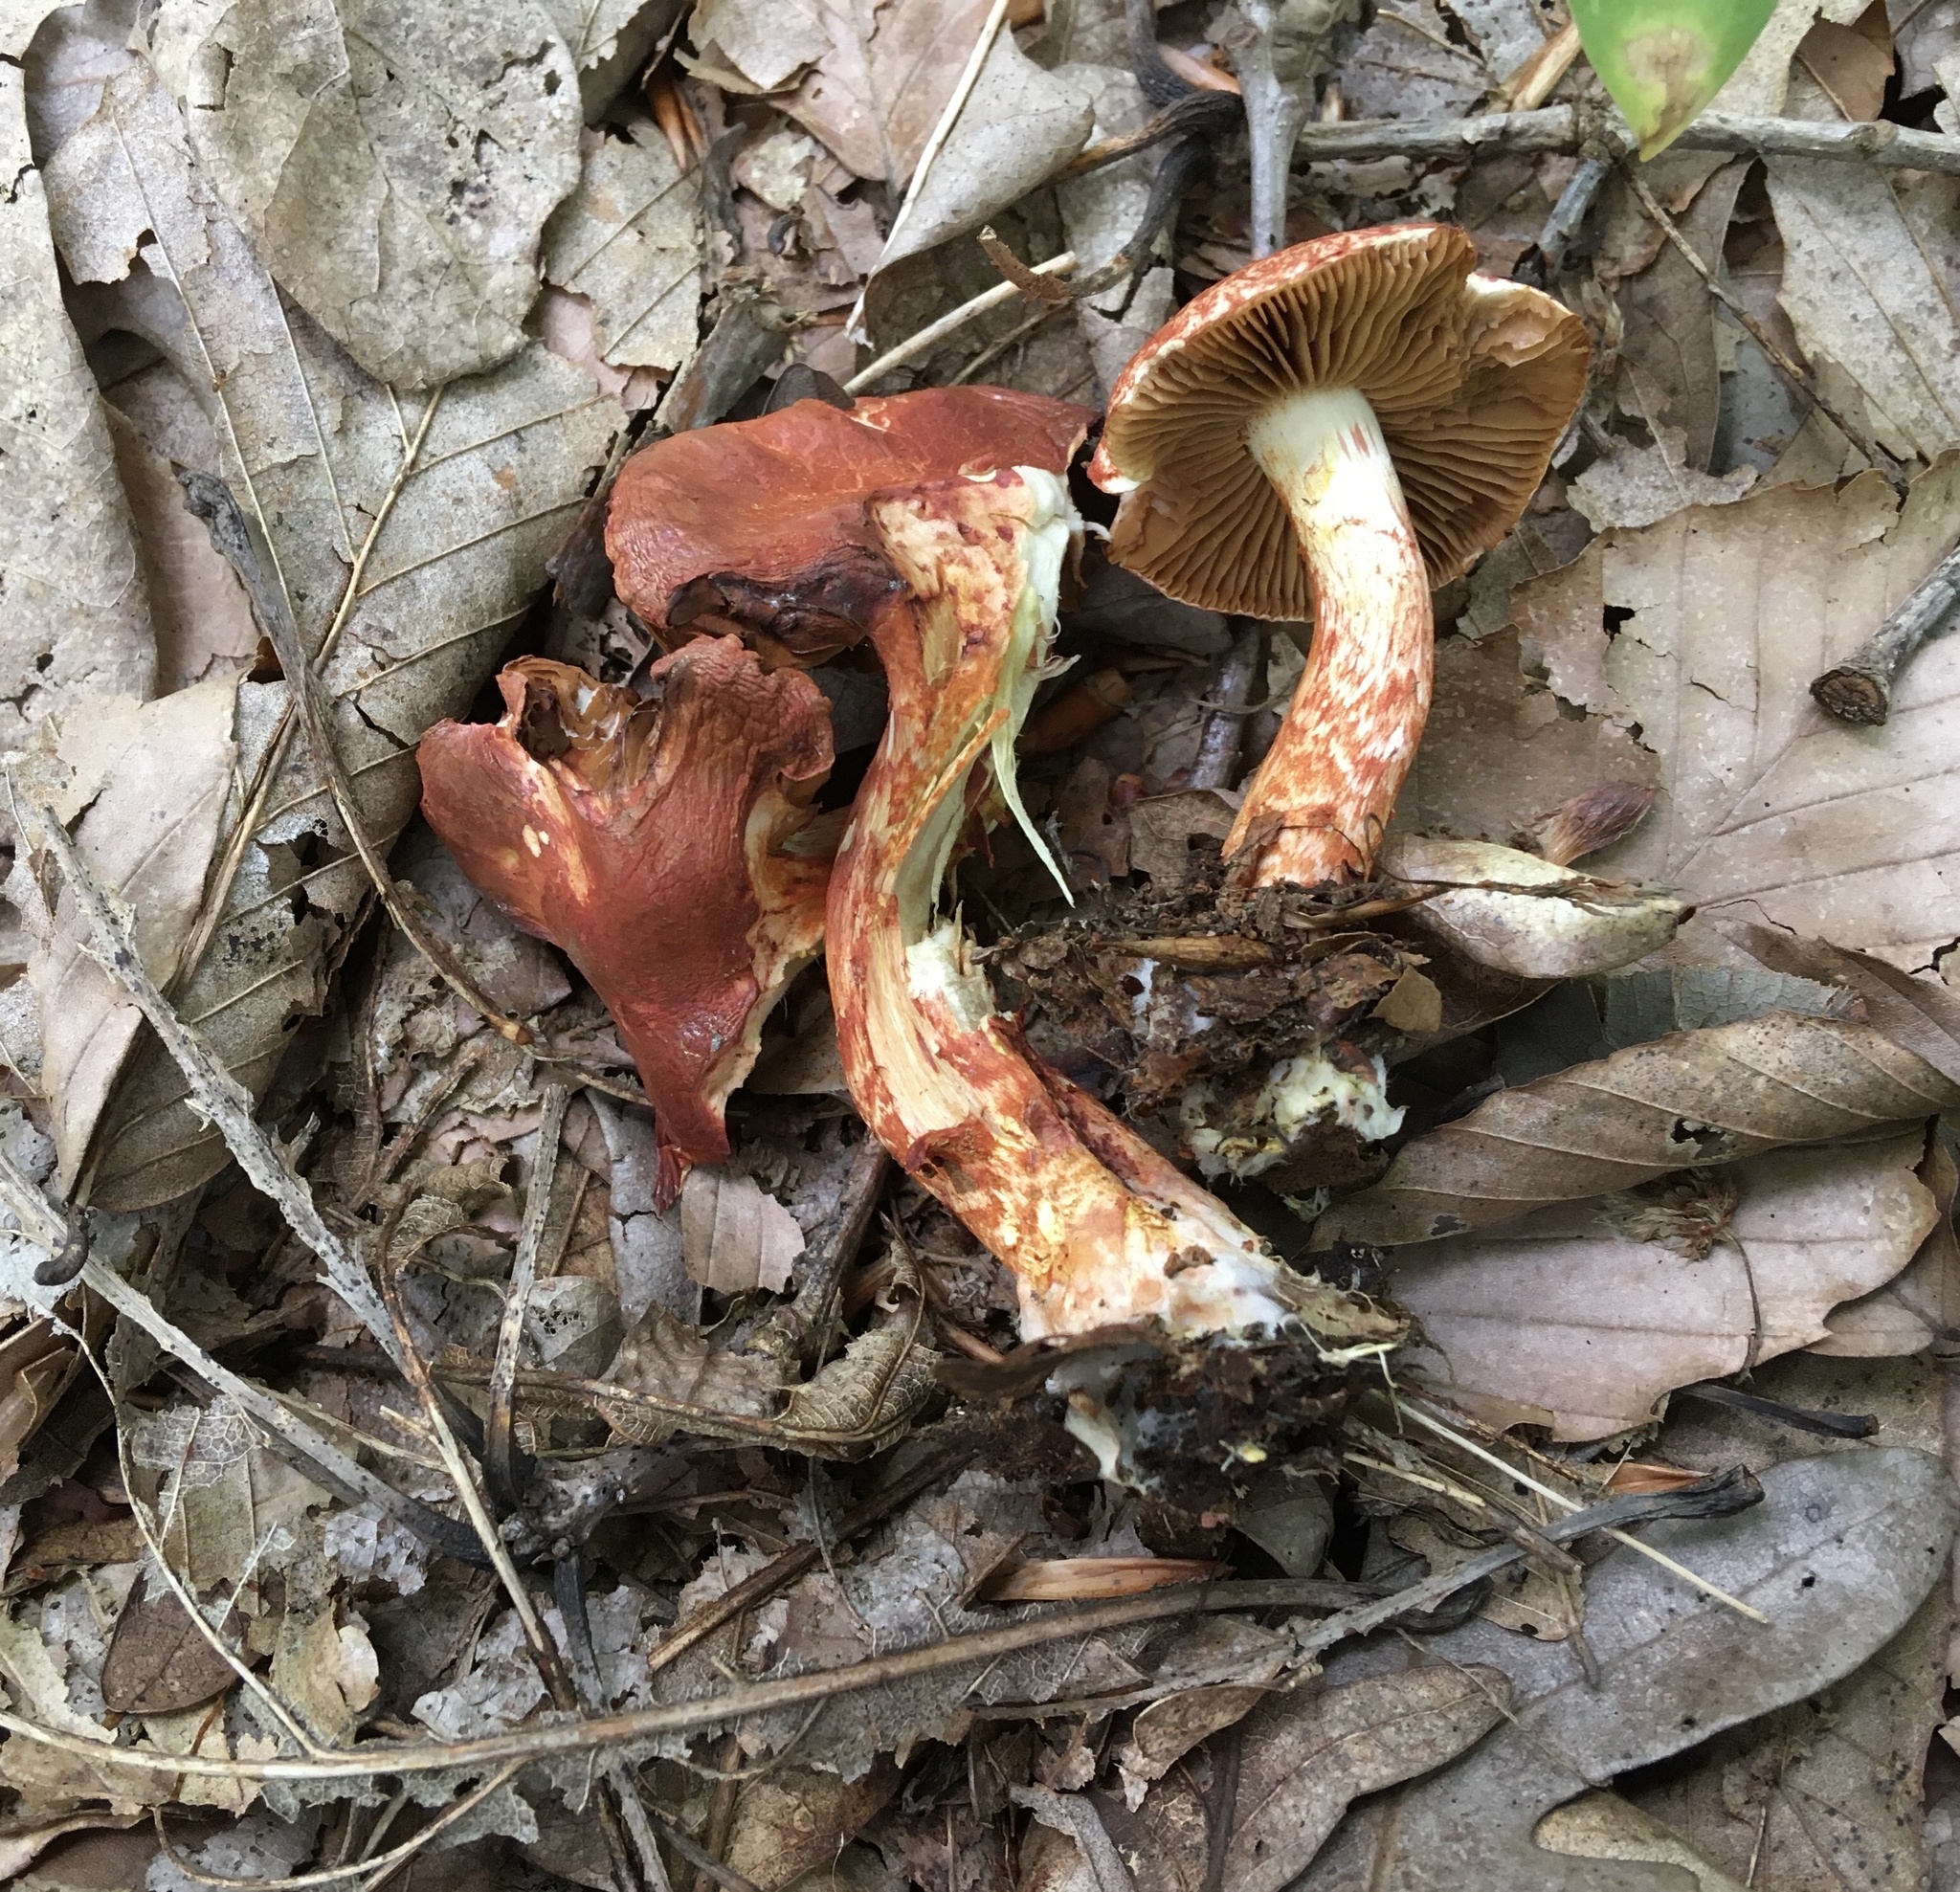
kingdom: Fungi
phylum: Basidiomycota
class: Agaricomycetes
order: Agaricales
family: Cortinariaceae
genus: Cortinarius
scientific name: Cortinarius bolaris
